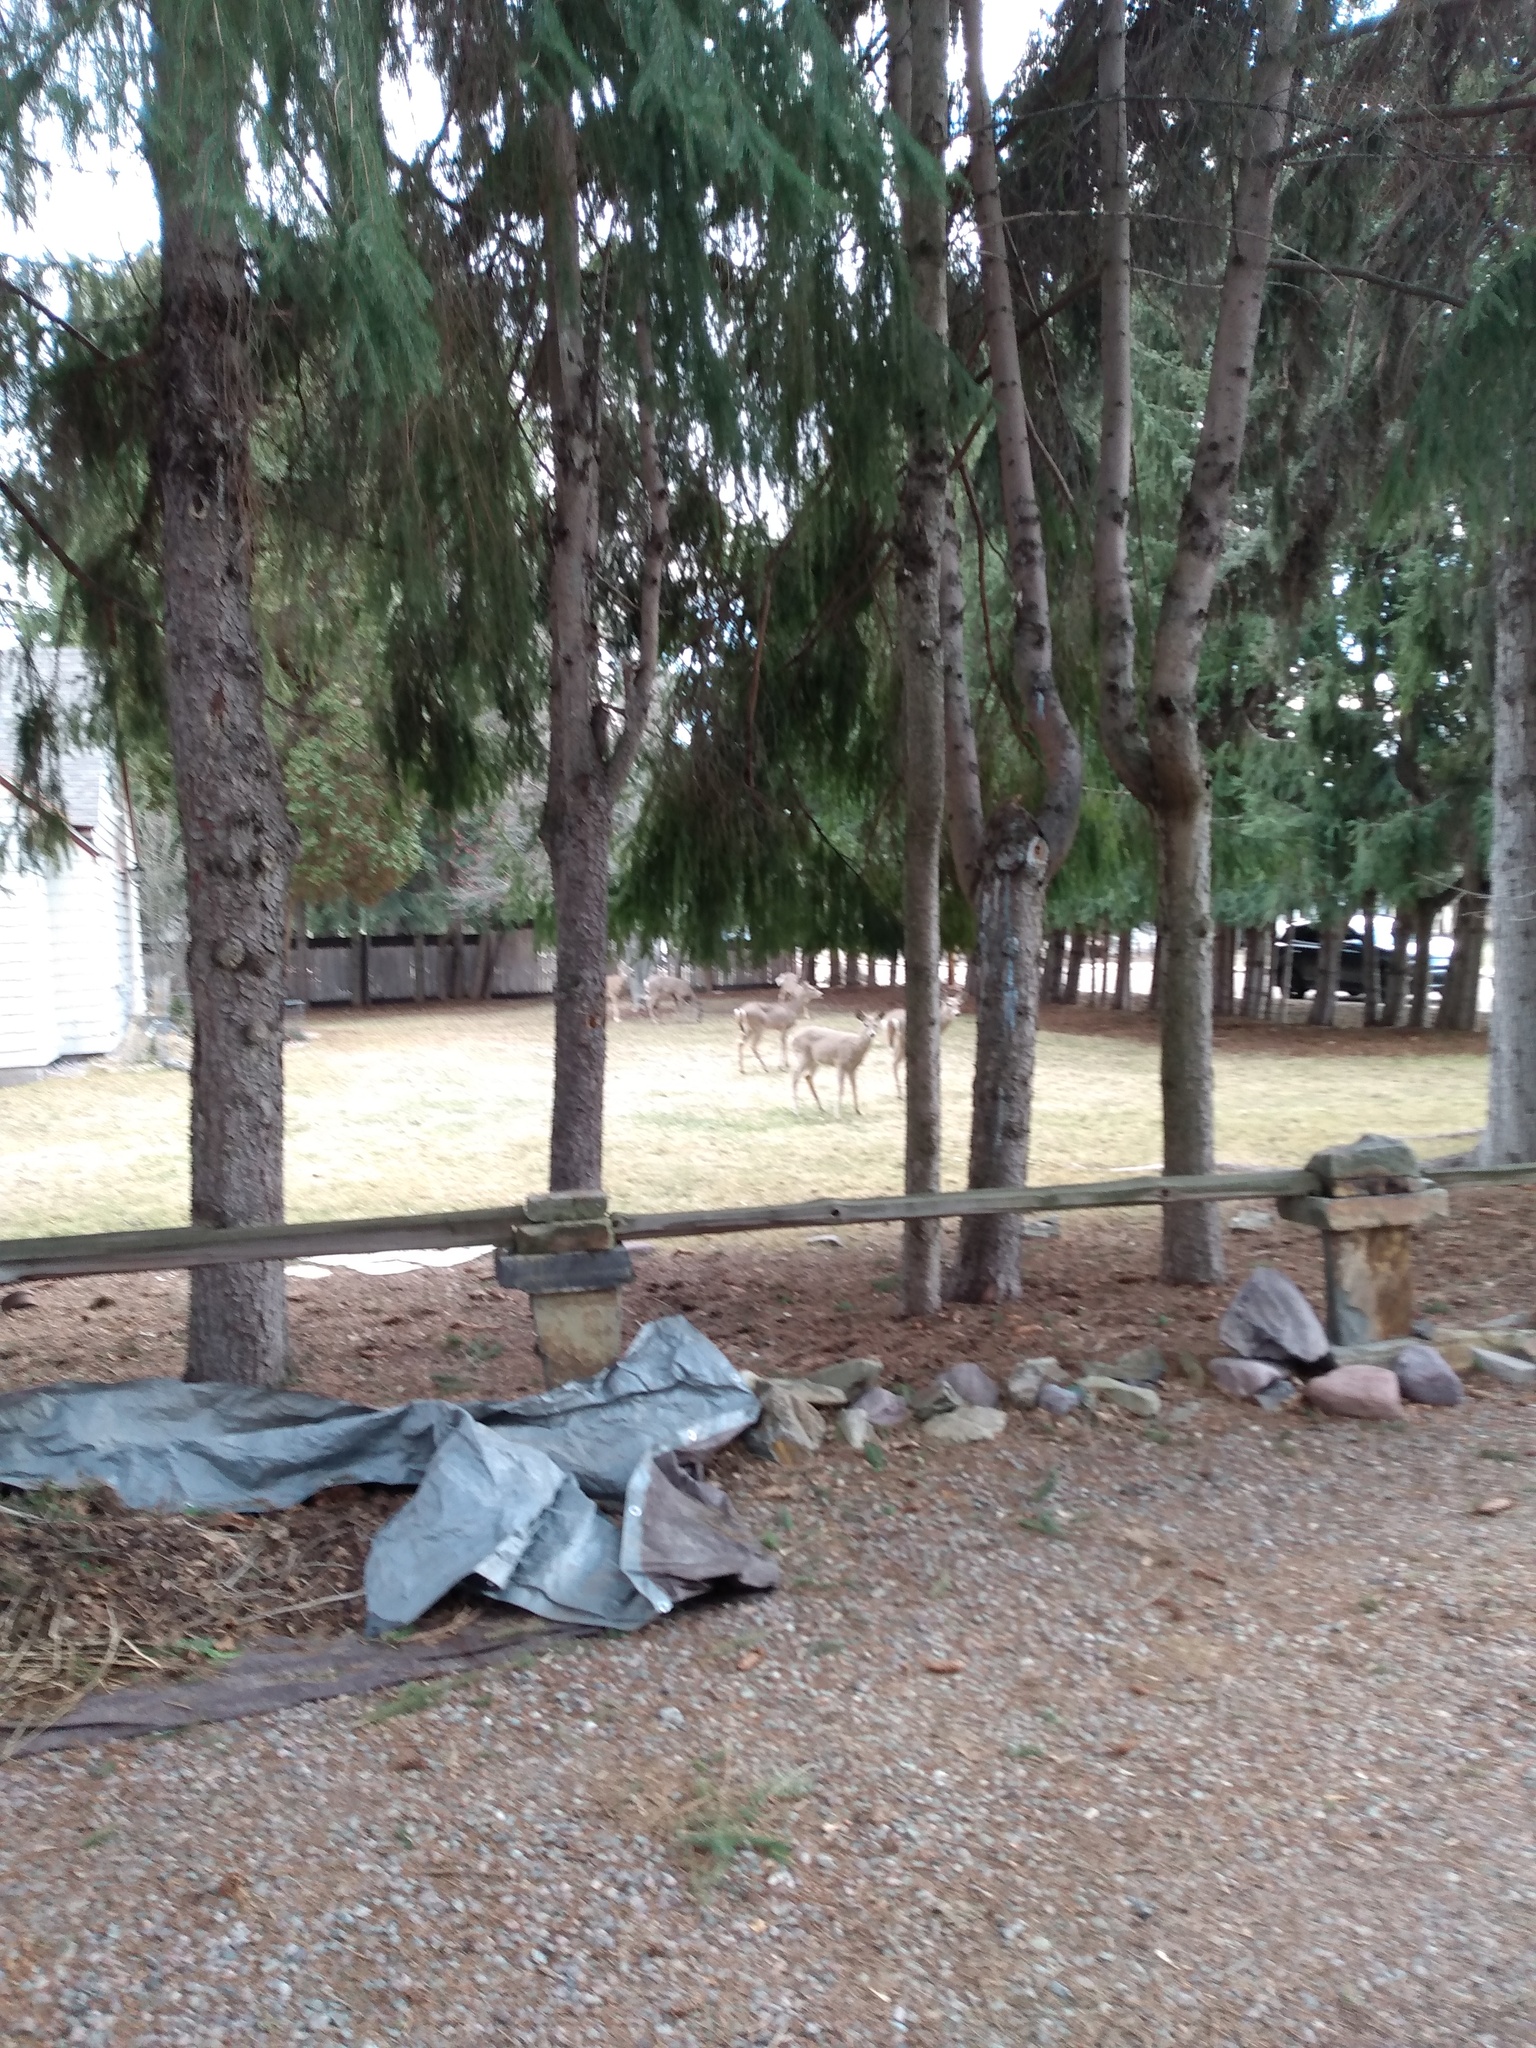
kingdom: Animalia
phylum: Chordata
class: Mammalia
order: Artiodactyla
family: Cervidae
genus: Odocoileus
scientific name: Odocoileus virginianus
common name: White-tailed deer
